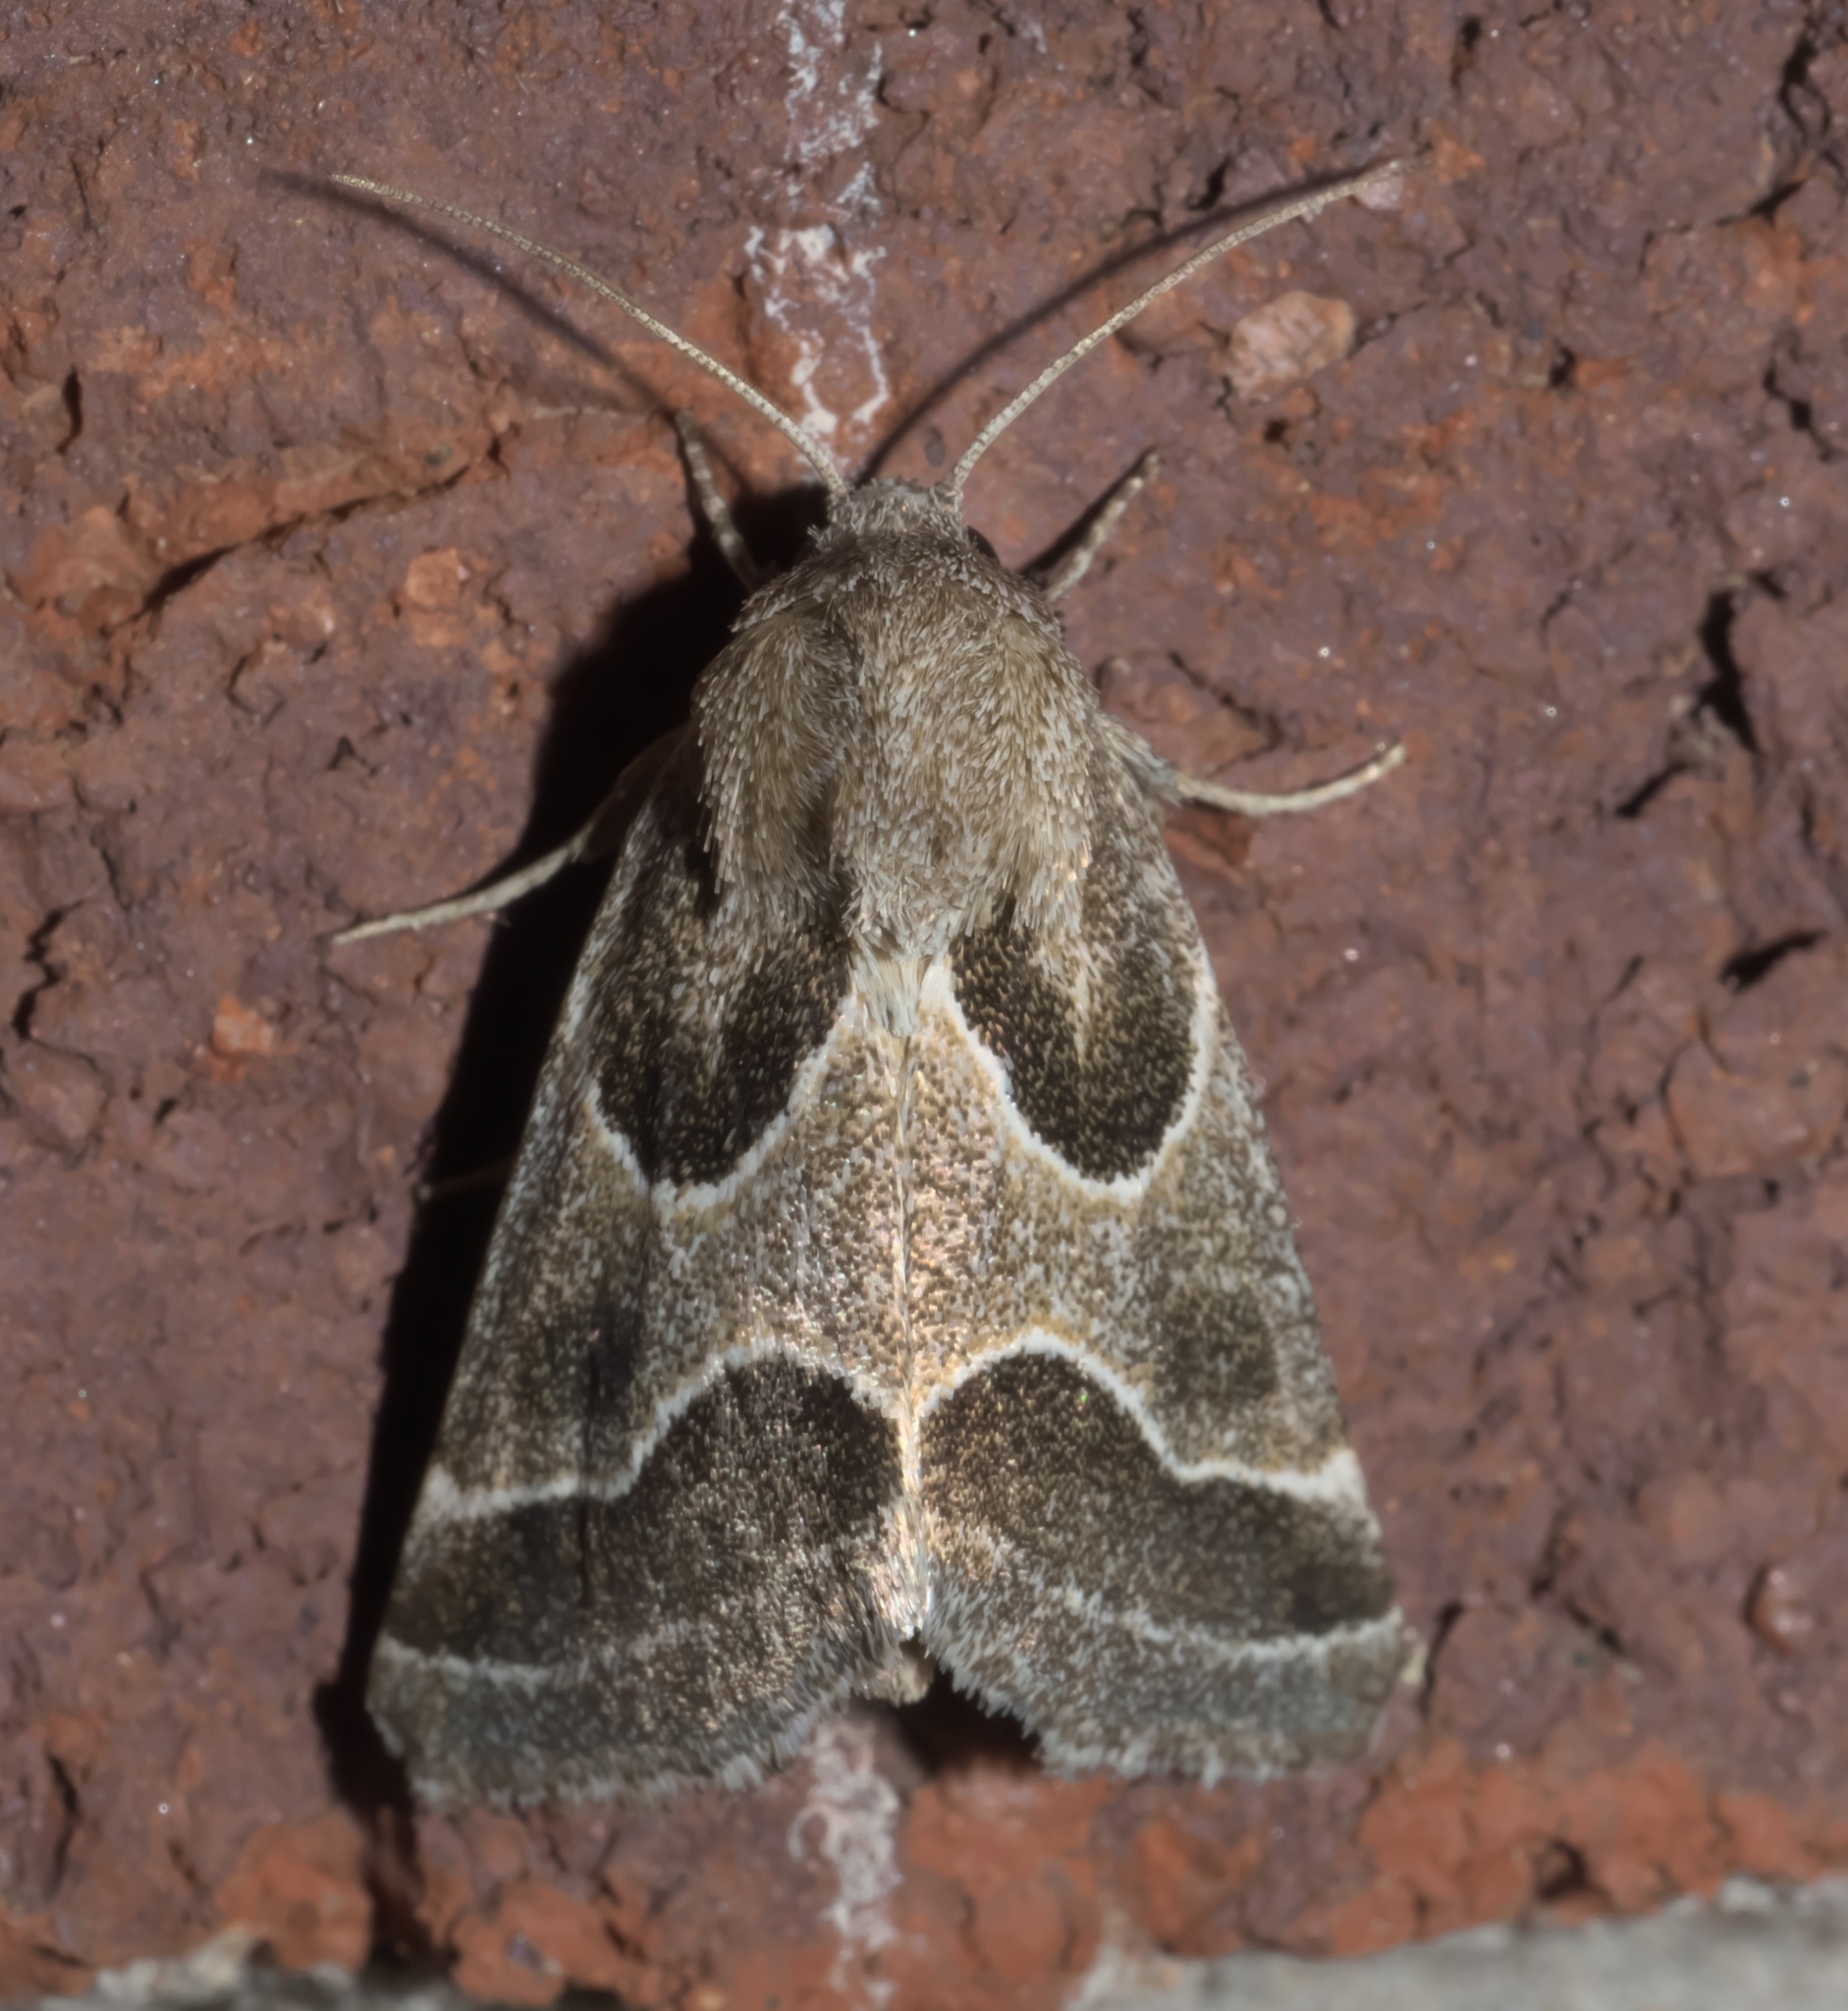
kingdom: Animalia
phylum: Arthropoda
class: Insecta
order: Lepidoptera
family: Noctuidae
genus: Schinia
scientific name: Schinia rivulosa
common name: Scarce meal-moth
